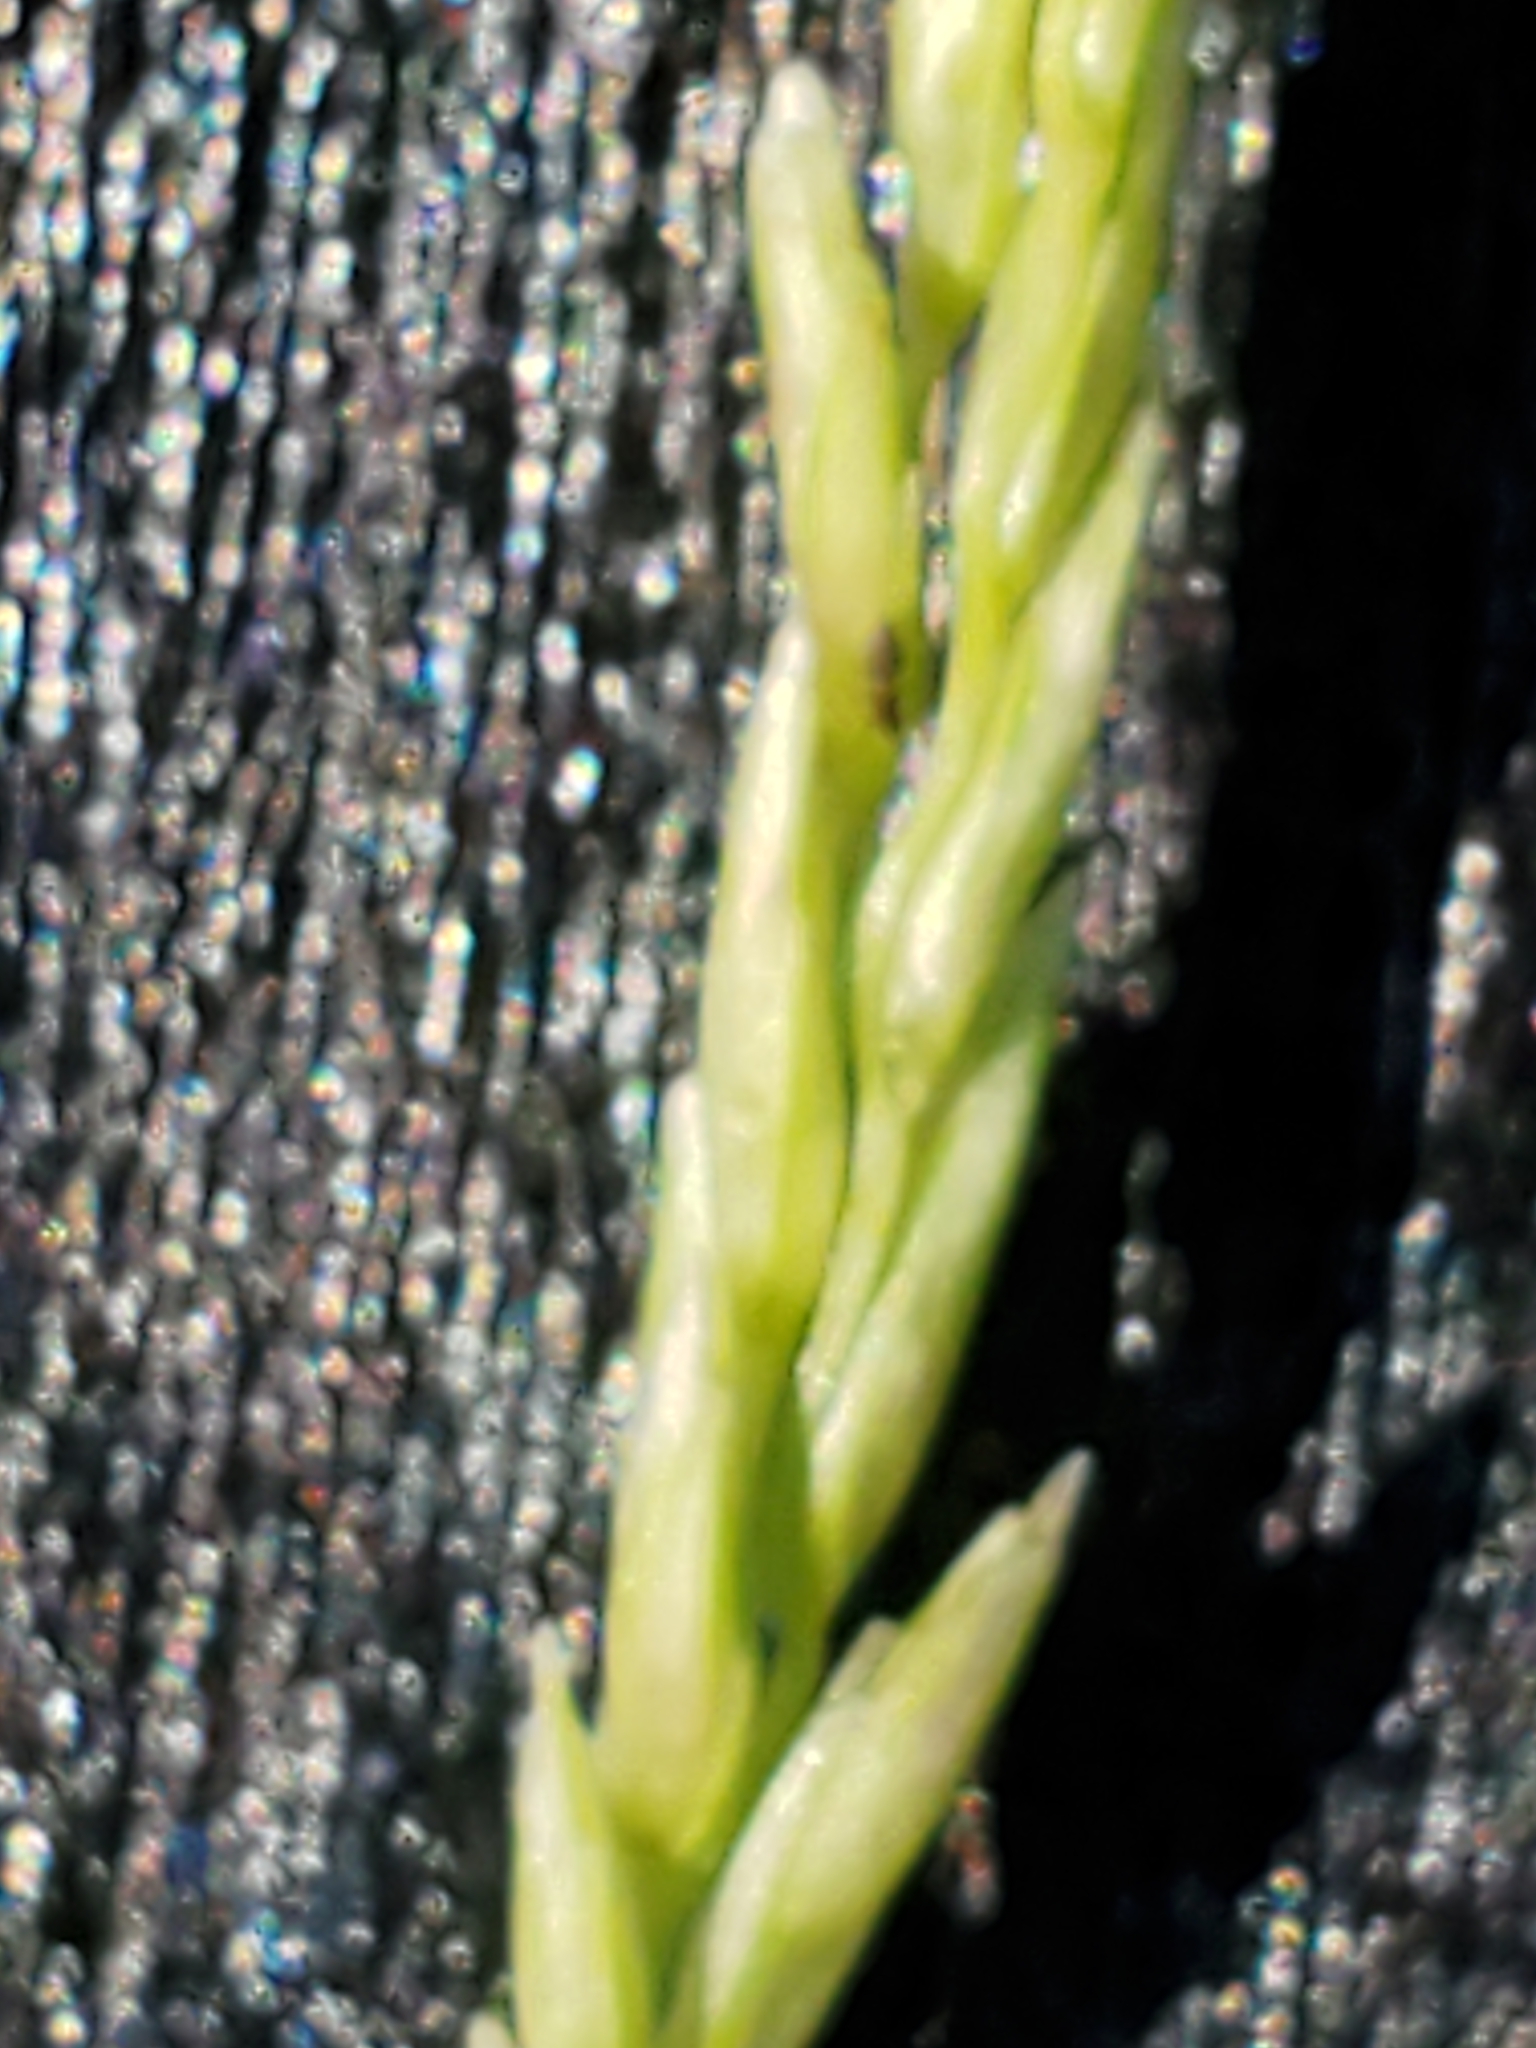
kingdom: Plantae
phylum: Tracheophyta
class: Liliopsida
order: Poales
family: Poaceae
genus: Tridentopsis
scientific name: Tridentopsis mutica
